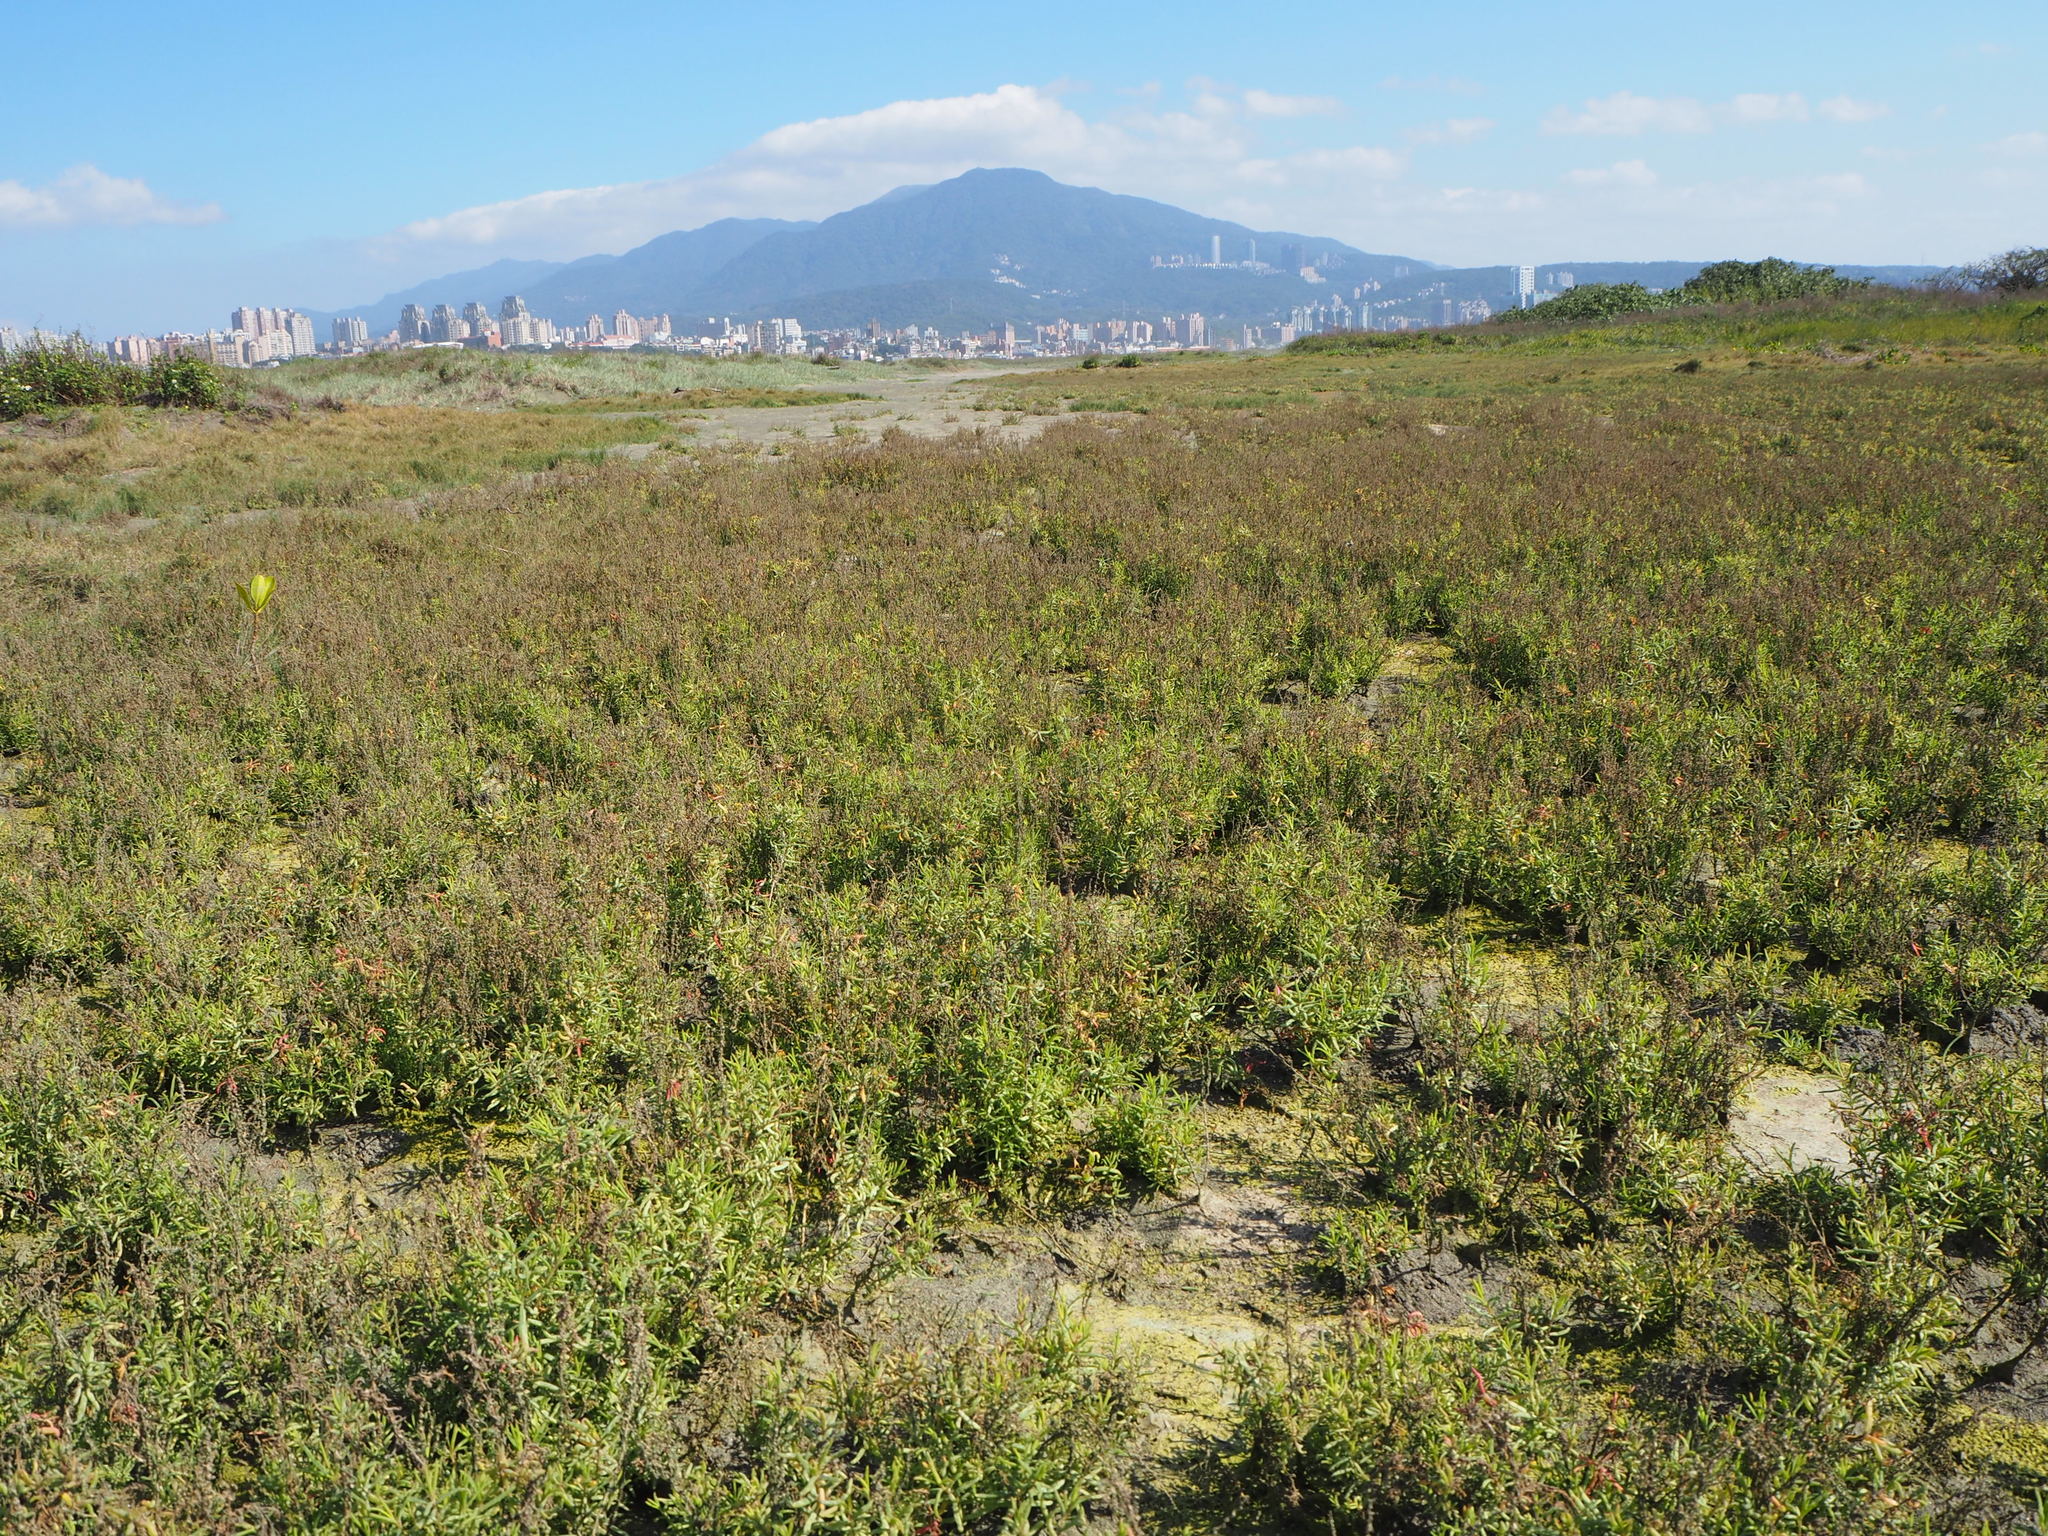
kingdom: Plantae
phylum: Tracheophyta
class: Magnoliopsida
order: Caryophyllales
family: Amaranthaceae
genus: Suaeda
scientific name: Suaeda maritima
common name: Annual sea-blite
